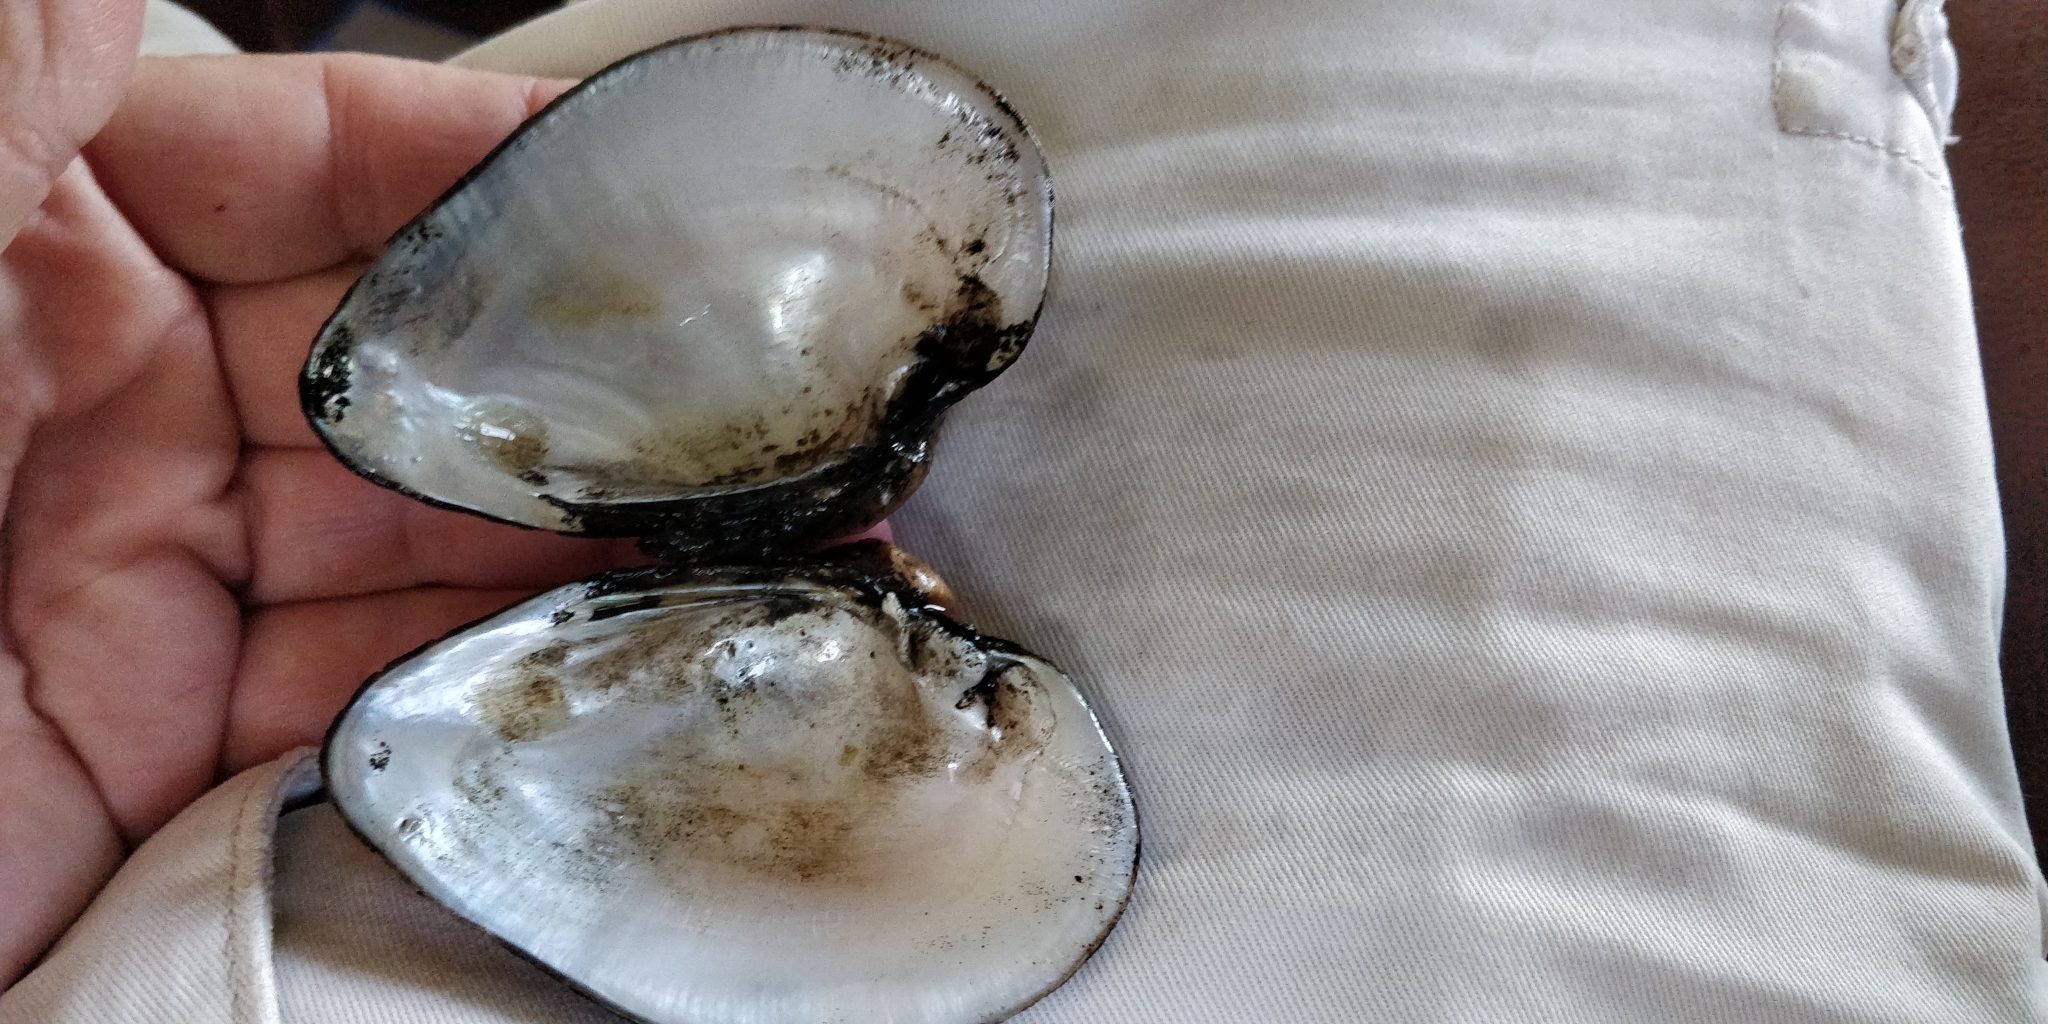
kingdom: Animalia
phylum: Mollusca
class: Bivalvia
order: Unionida
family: Unionidae
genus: Truncilla
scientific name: Truncilla truncata
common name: Deertoe
